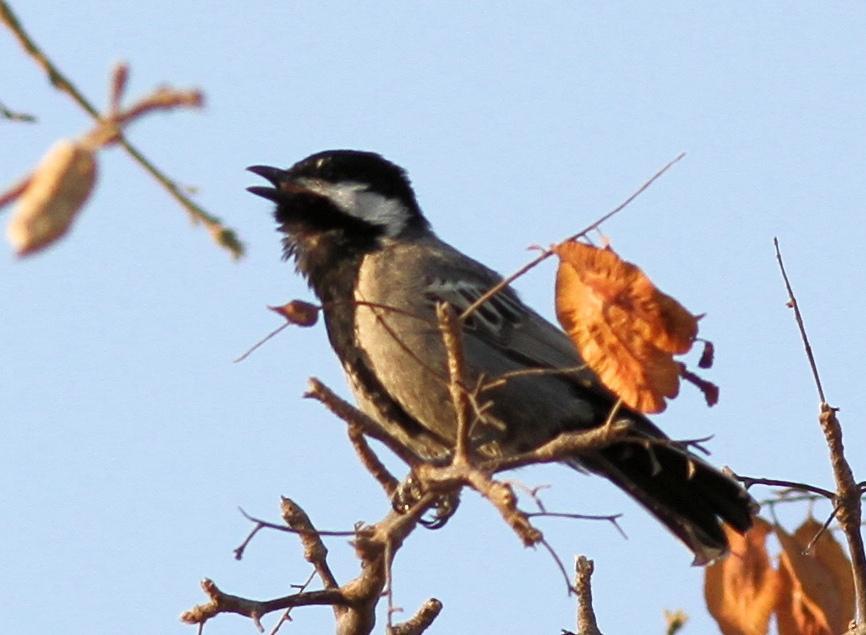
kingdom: Animalia
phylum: Chordata
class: Aves
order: Passeriformes
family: Paridae
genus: Parus
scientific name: Parus cinerascens
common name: Ashy tit
